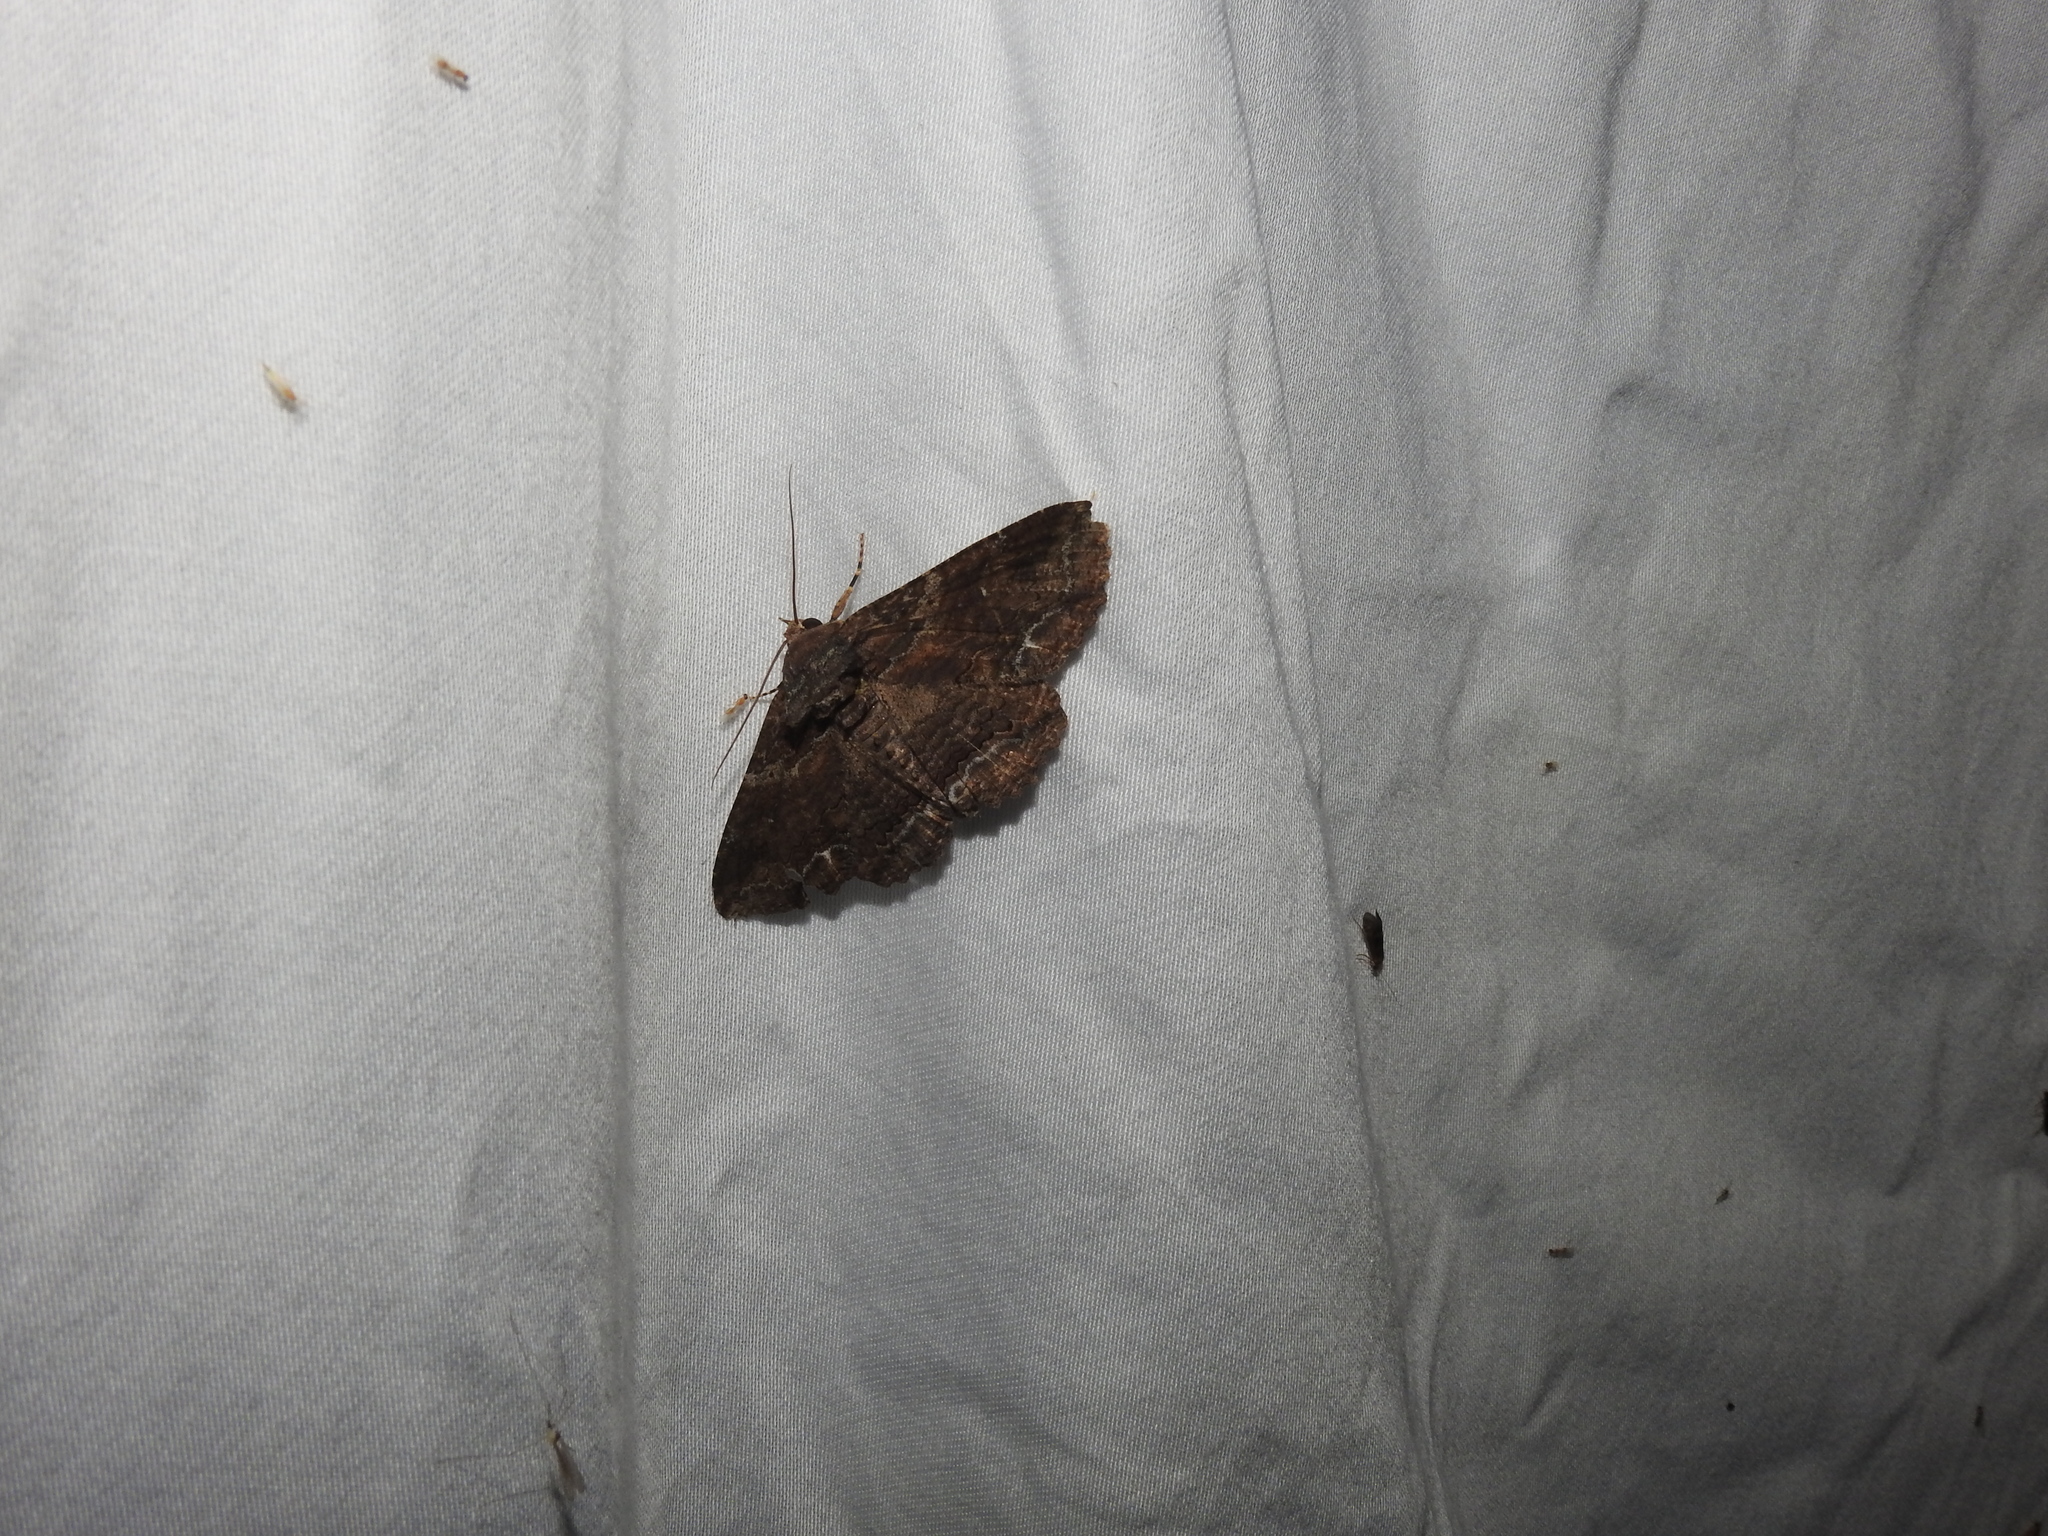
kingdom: Animalia
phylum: Arthropoda
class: Insecta
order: Lepidoptera
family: Erebidae
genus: Zale
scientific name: Zale lunata
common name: Lunate zale moth
